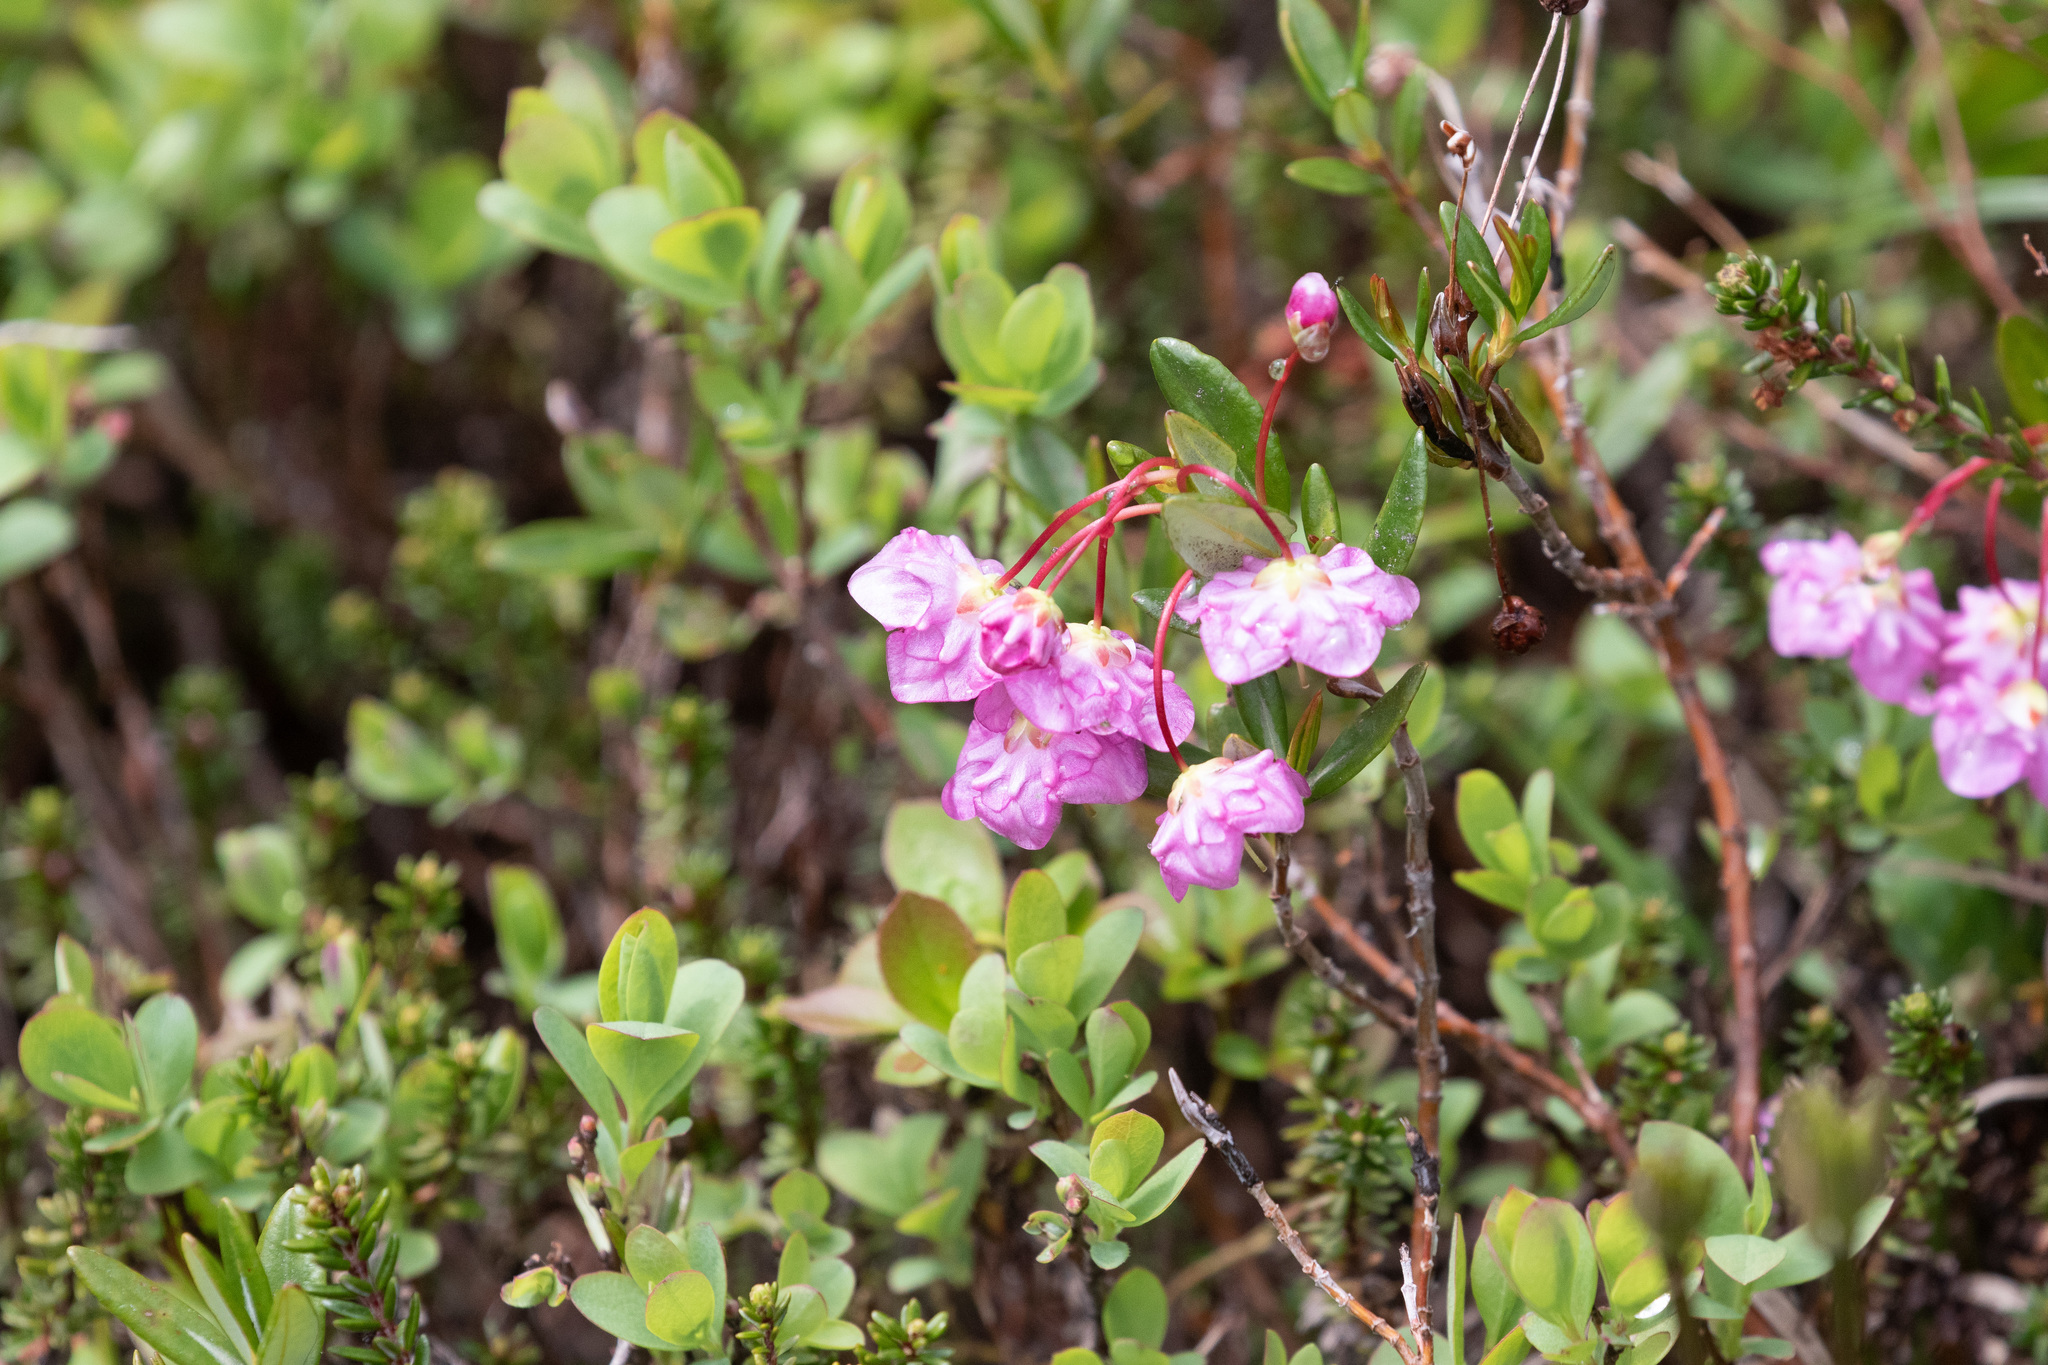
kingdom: Plantae
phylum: Tracheophyta
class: Magnoliopsida
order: Ericales
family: Ericaceae
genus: Kalmia
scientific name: Kalmia microphylla
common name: Alpine bog laurel
